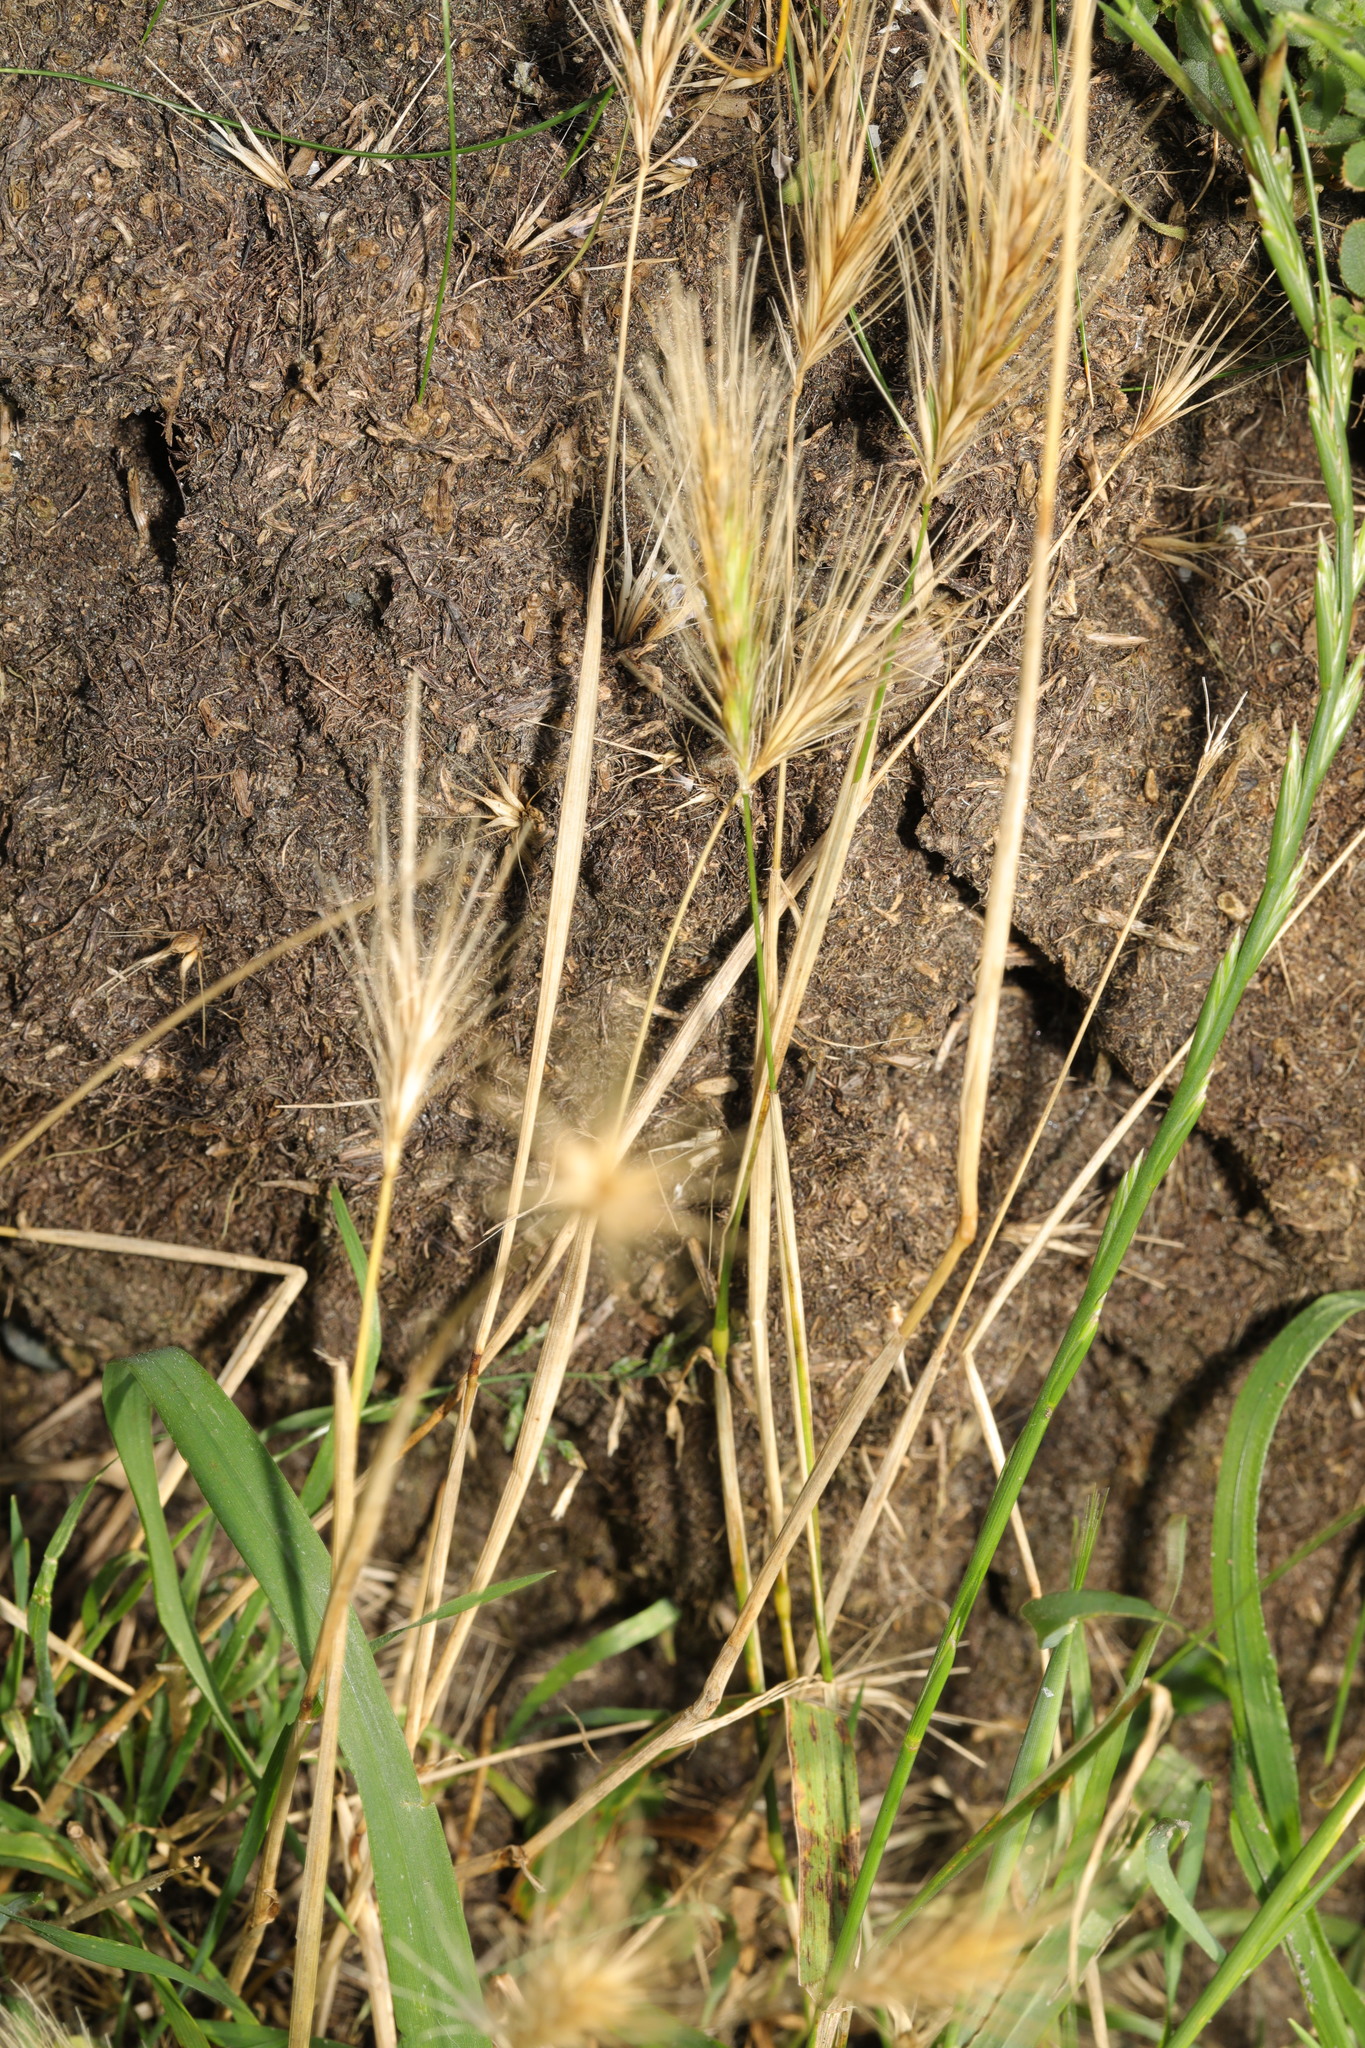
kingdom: Plantae
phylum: Tracheophyta
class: Liliopsida
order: Poales
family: Poaceae
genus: Hordeum
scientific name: Hordeum murinum
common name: Wall barley
